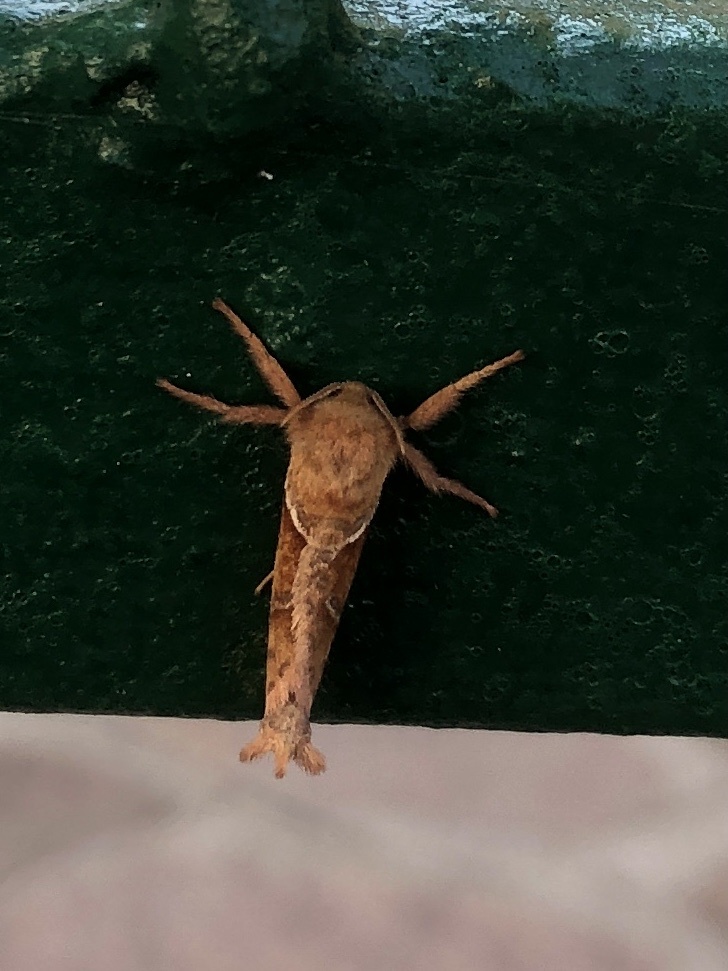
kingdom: Animalia
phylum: Arthropoda
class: Insecta
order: Lepidoptera
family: Hepialidae
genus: Triodia
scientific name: Triodia sylvina
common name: Orange swift
